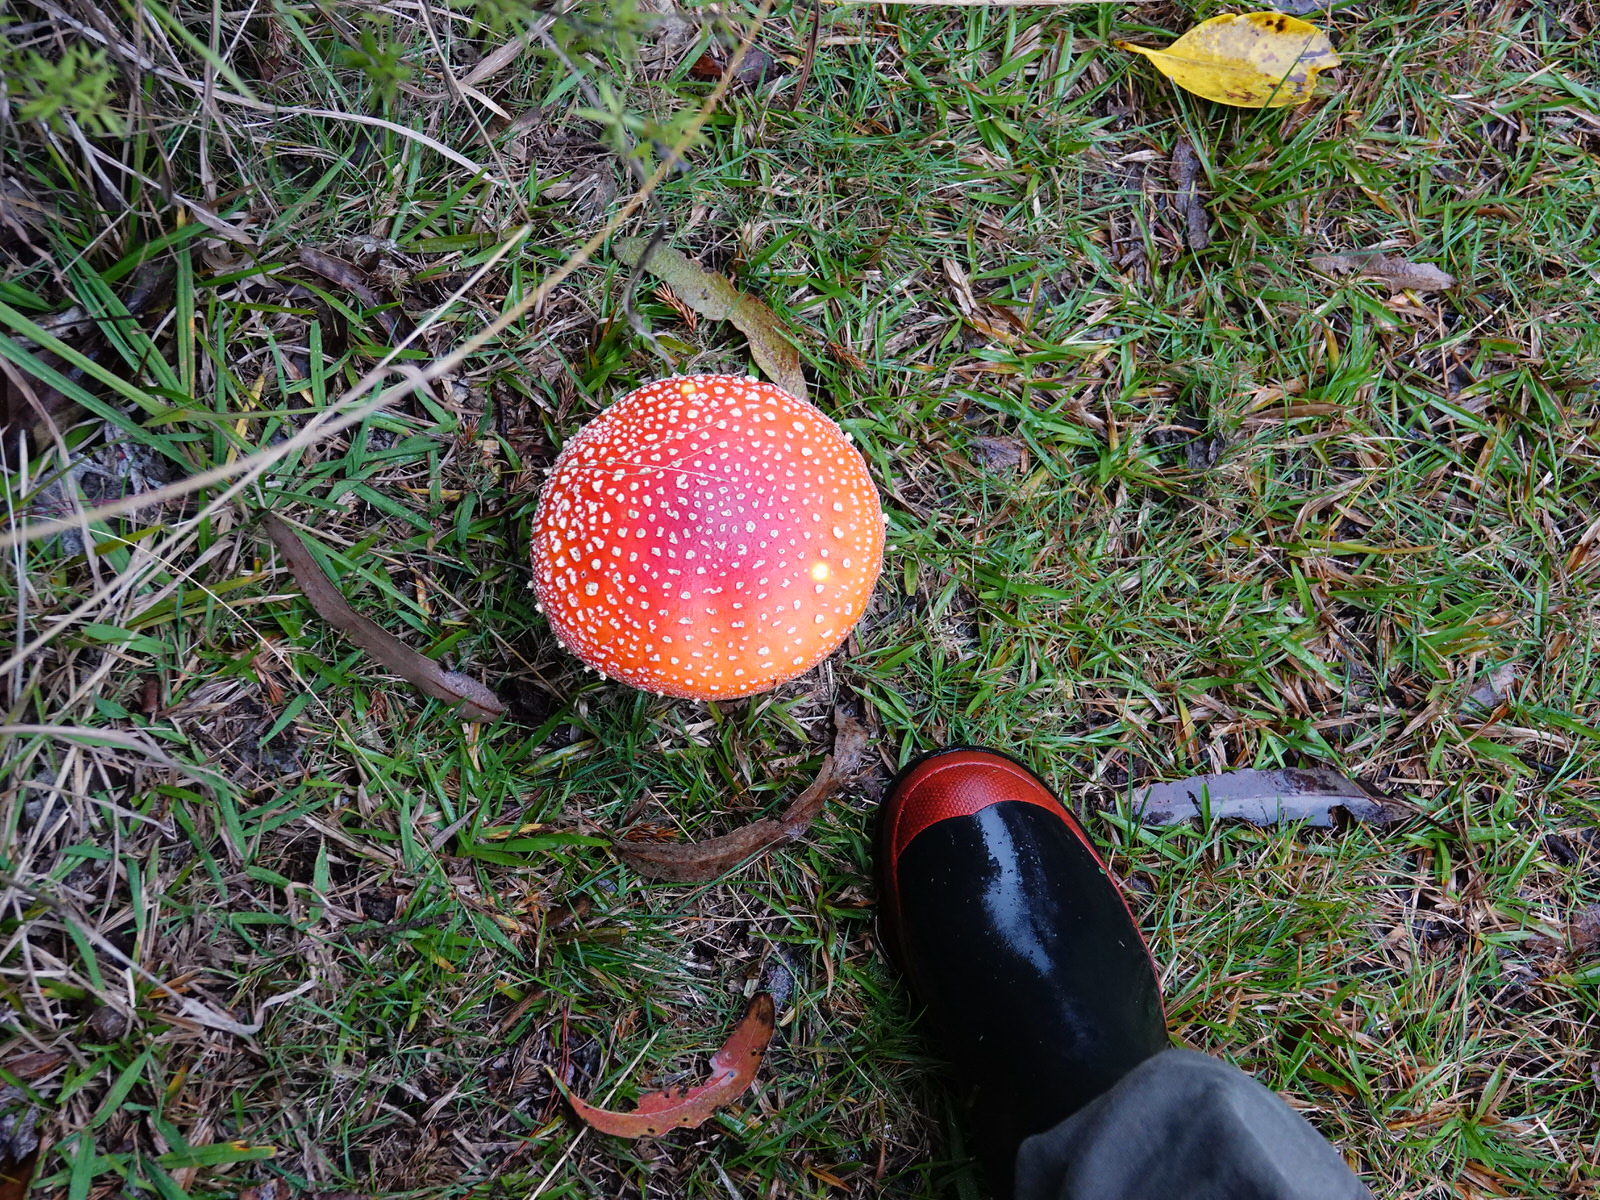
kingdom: Fungi
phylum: Basidiomycota
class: Agaricomycetes
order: Agaricales
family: Amanitaceae
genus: Amanita
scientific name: Amanita muscaria
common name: Fly agaric
